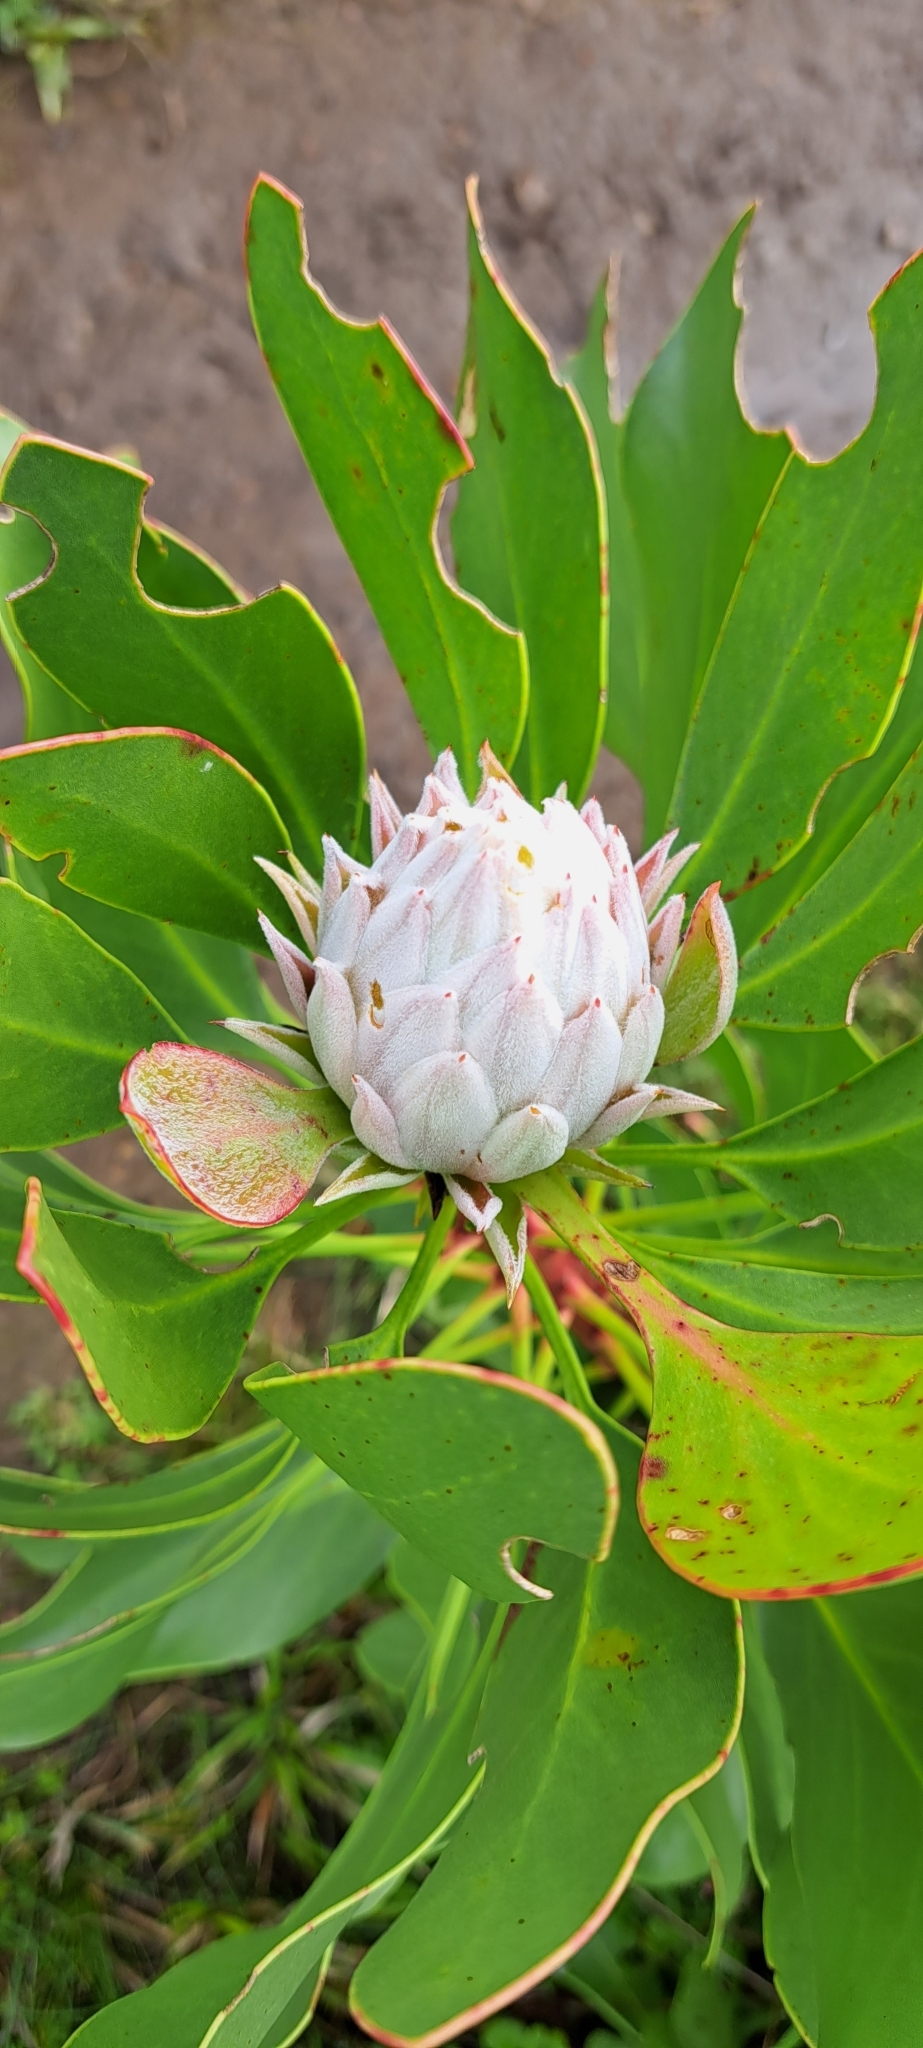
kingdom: Plantae
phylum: Tracheophyta
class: Magnoliopsida
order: Proteales
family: Proteaceae
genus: Protea
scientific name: Protea cynaroides
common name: King protea
